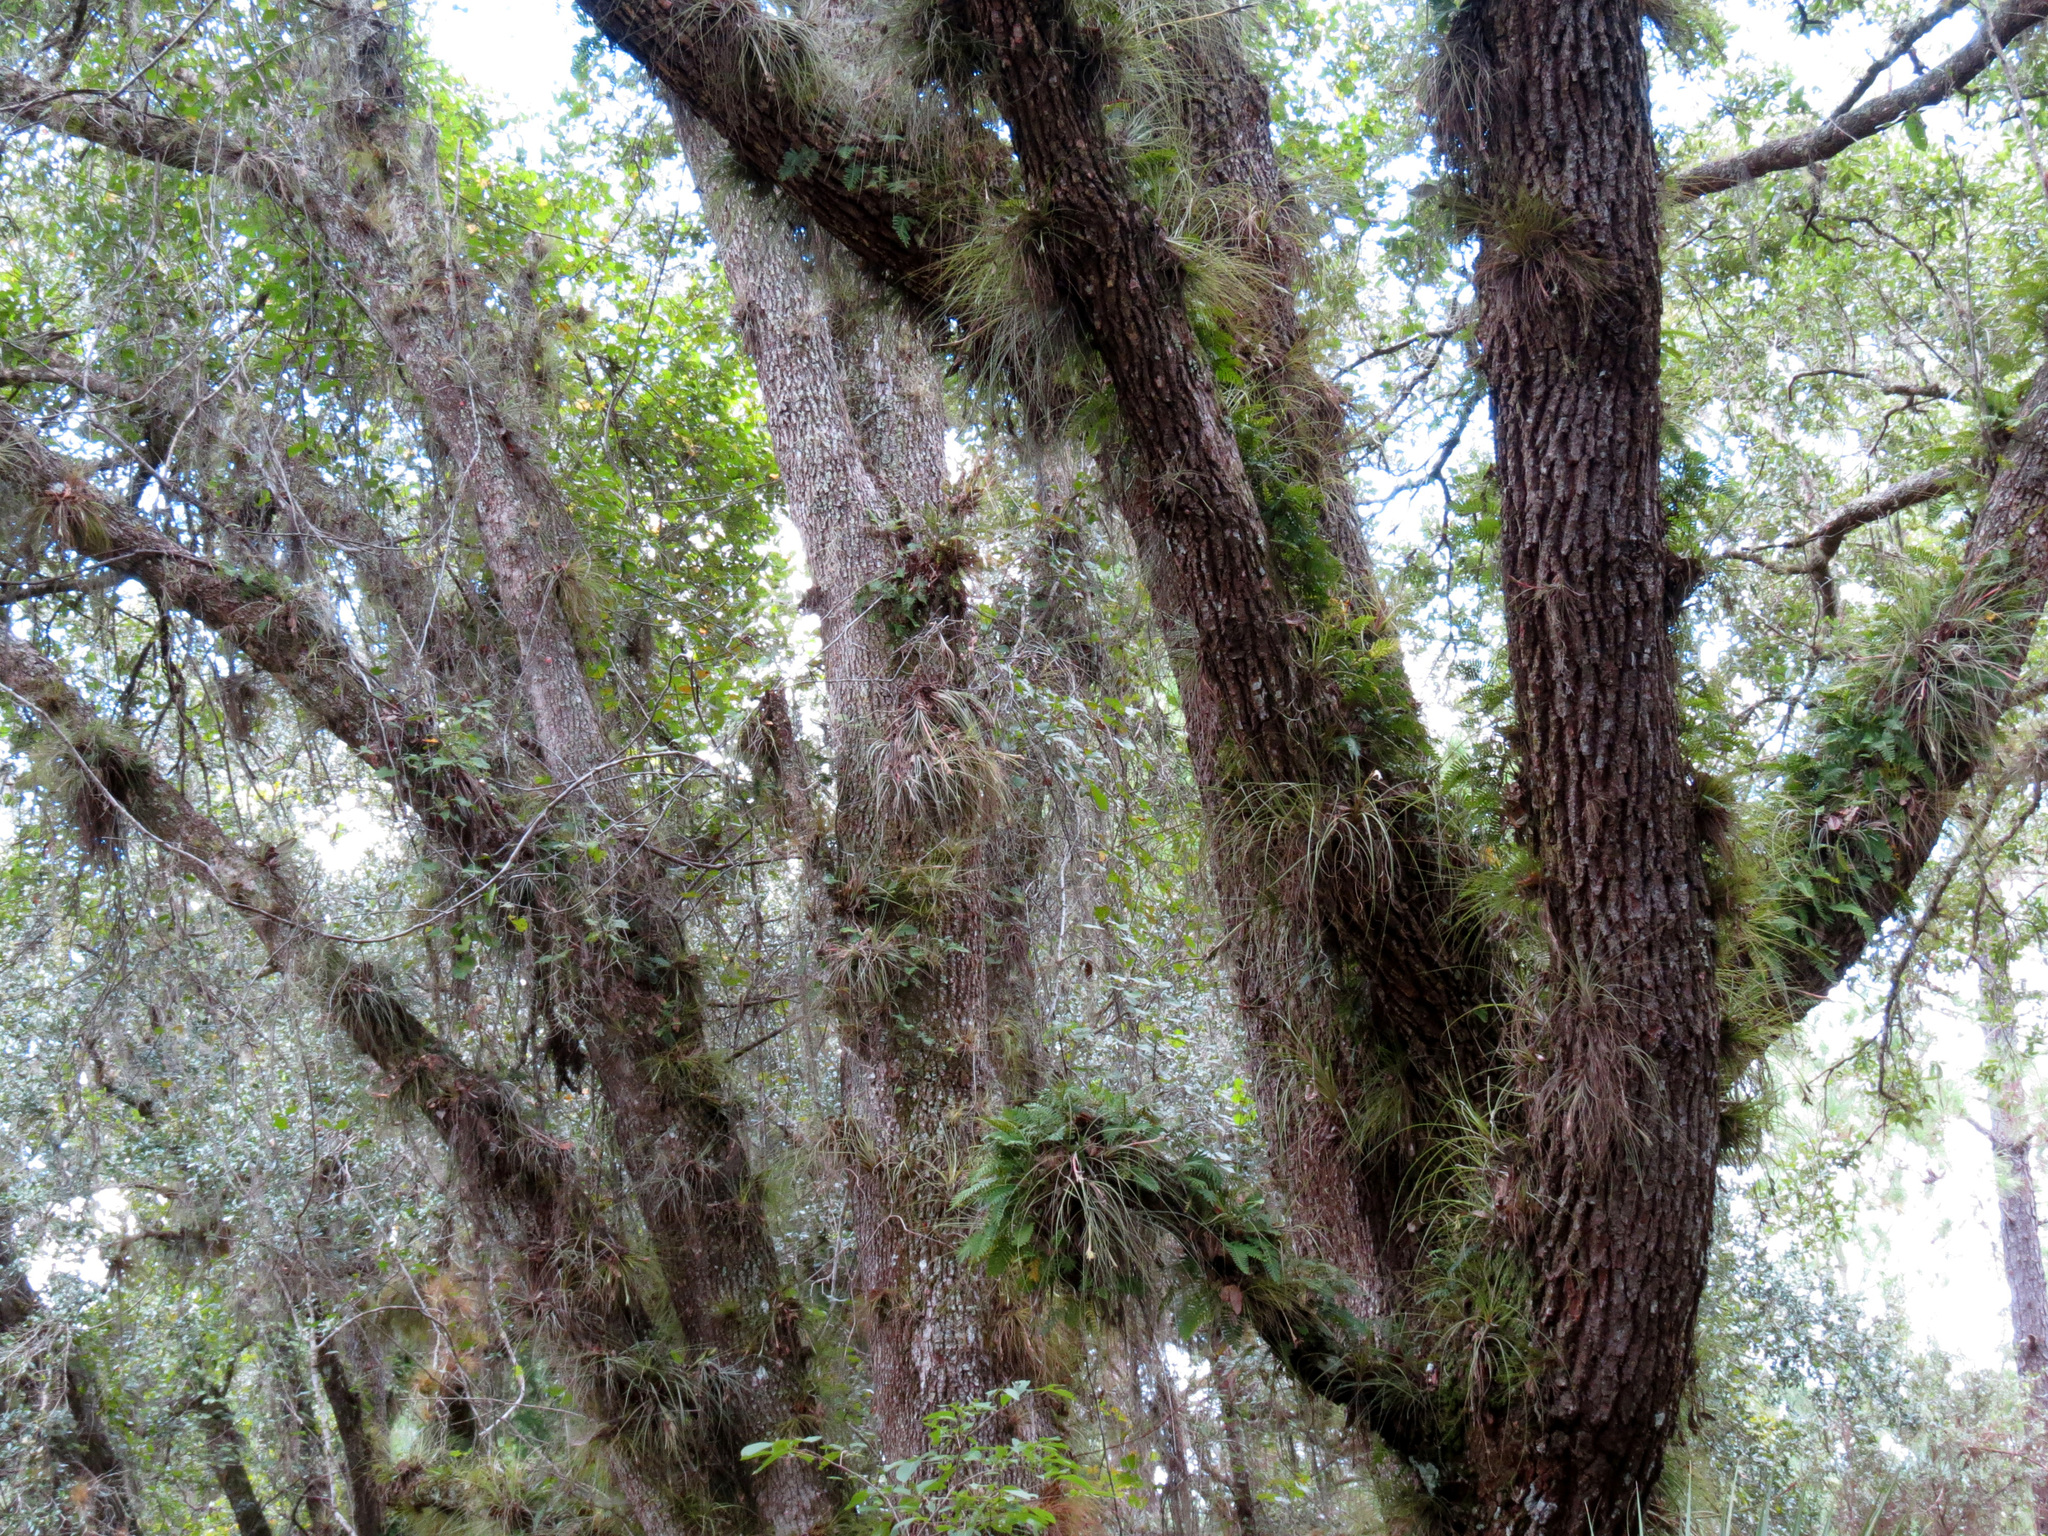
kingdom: Plantae
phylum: Tracheophyta
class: Magnoliopsida
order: Fagales
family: Fagaceae
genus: Quercus
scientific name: Quercus virginiana
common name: Southern live oak
